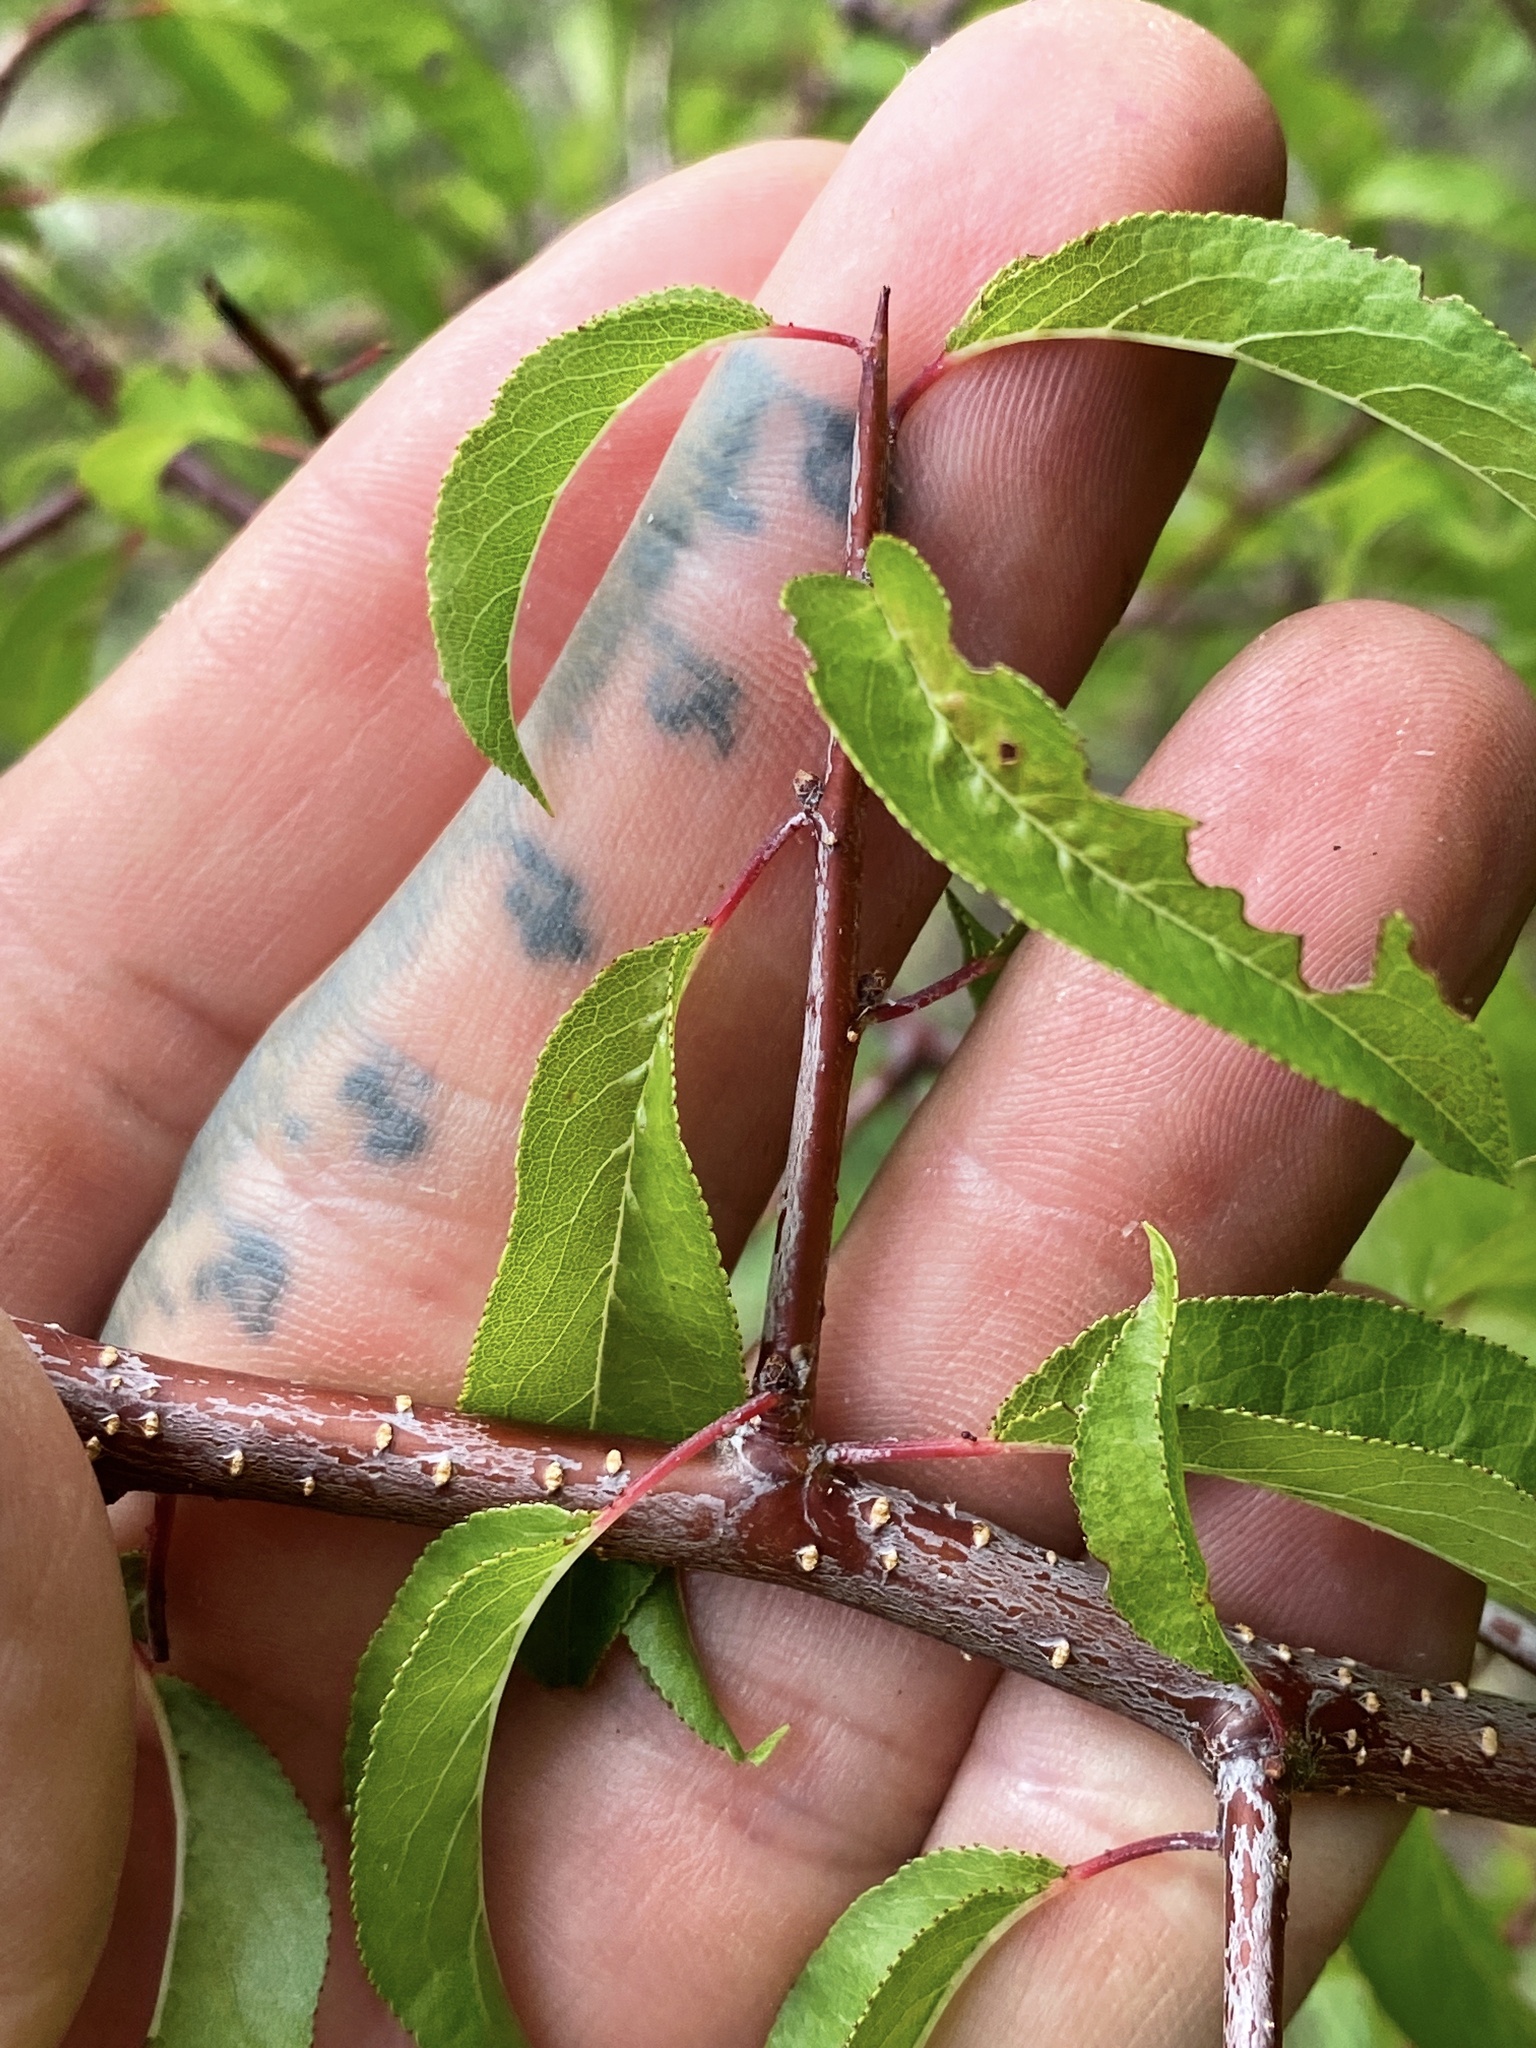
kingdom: Plantae
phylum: Tracheophyta
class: Magnoliopsida
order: Rosales
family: Rosaceae
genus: Prunus
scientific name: Prunus angustifolia
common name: Cherokee plum
